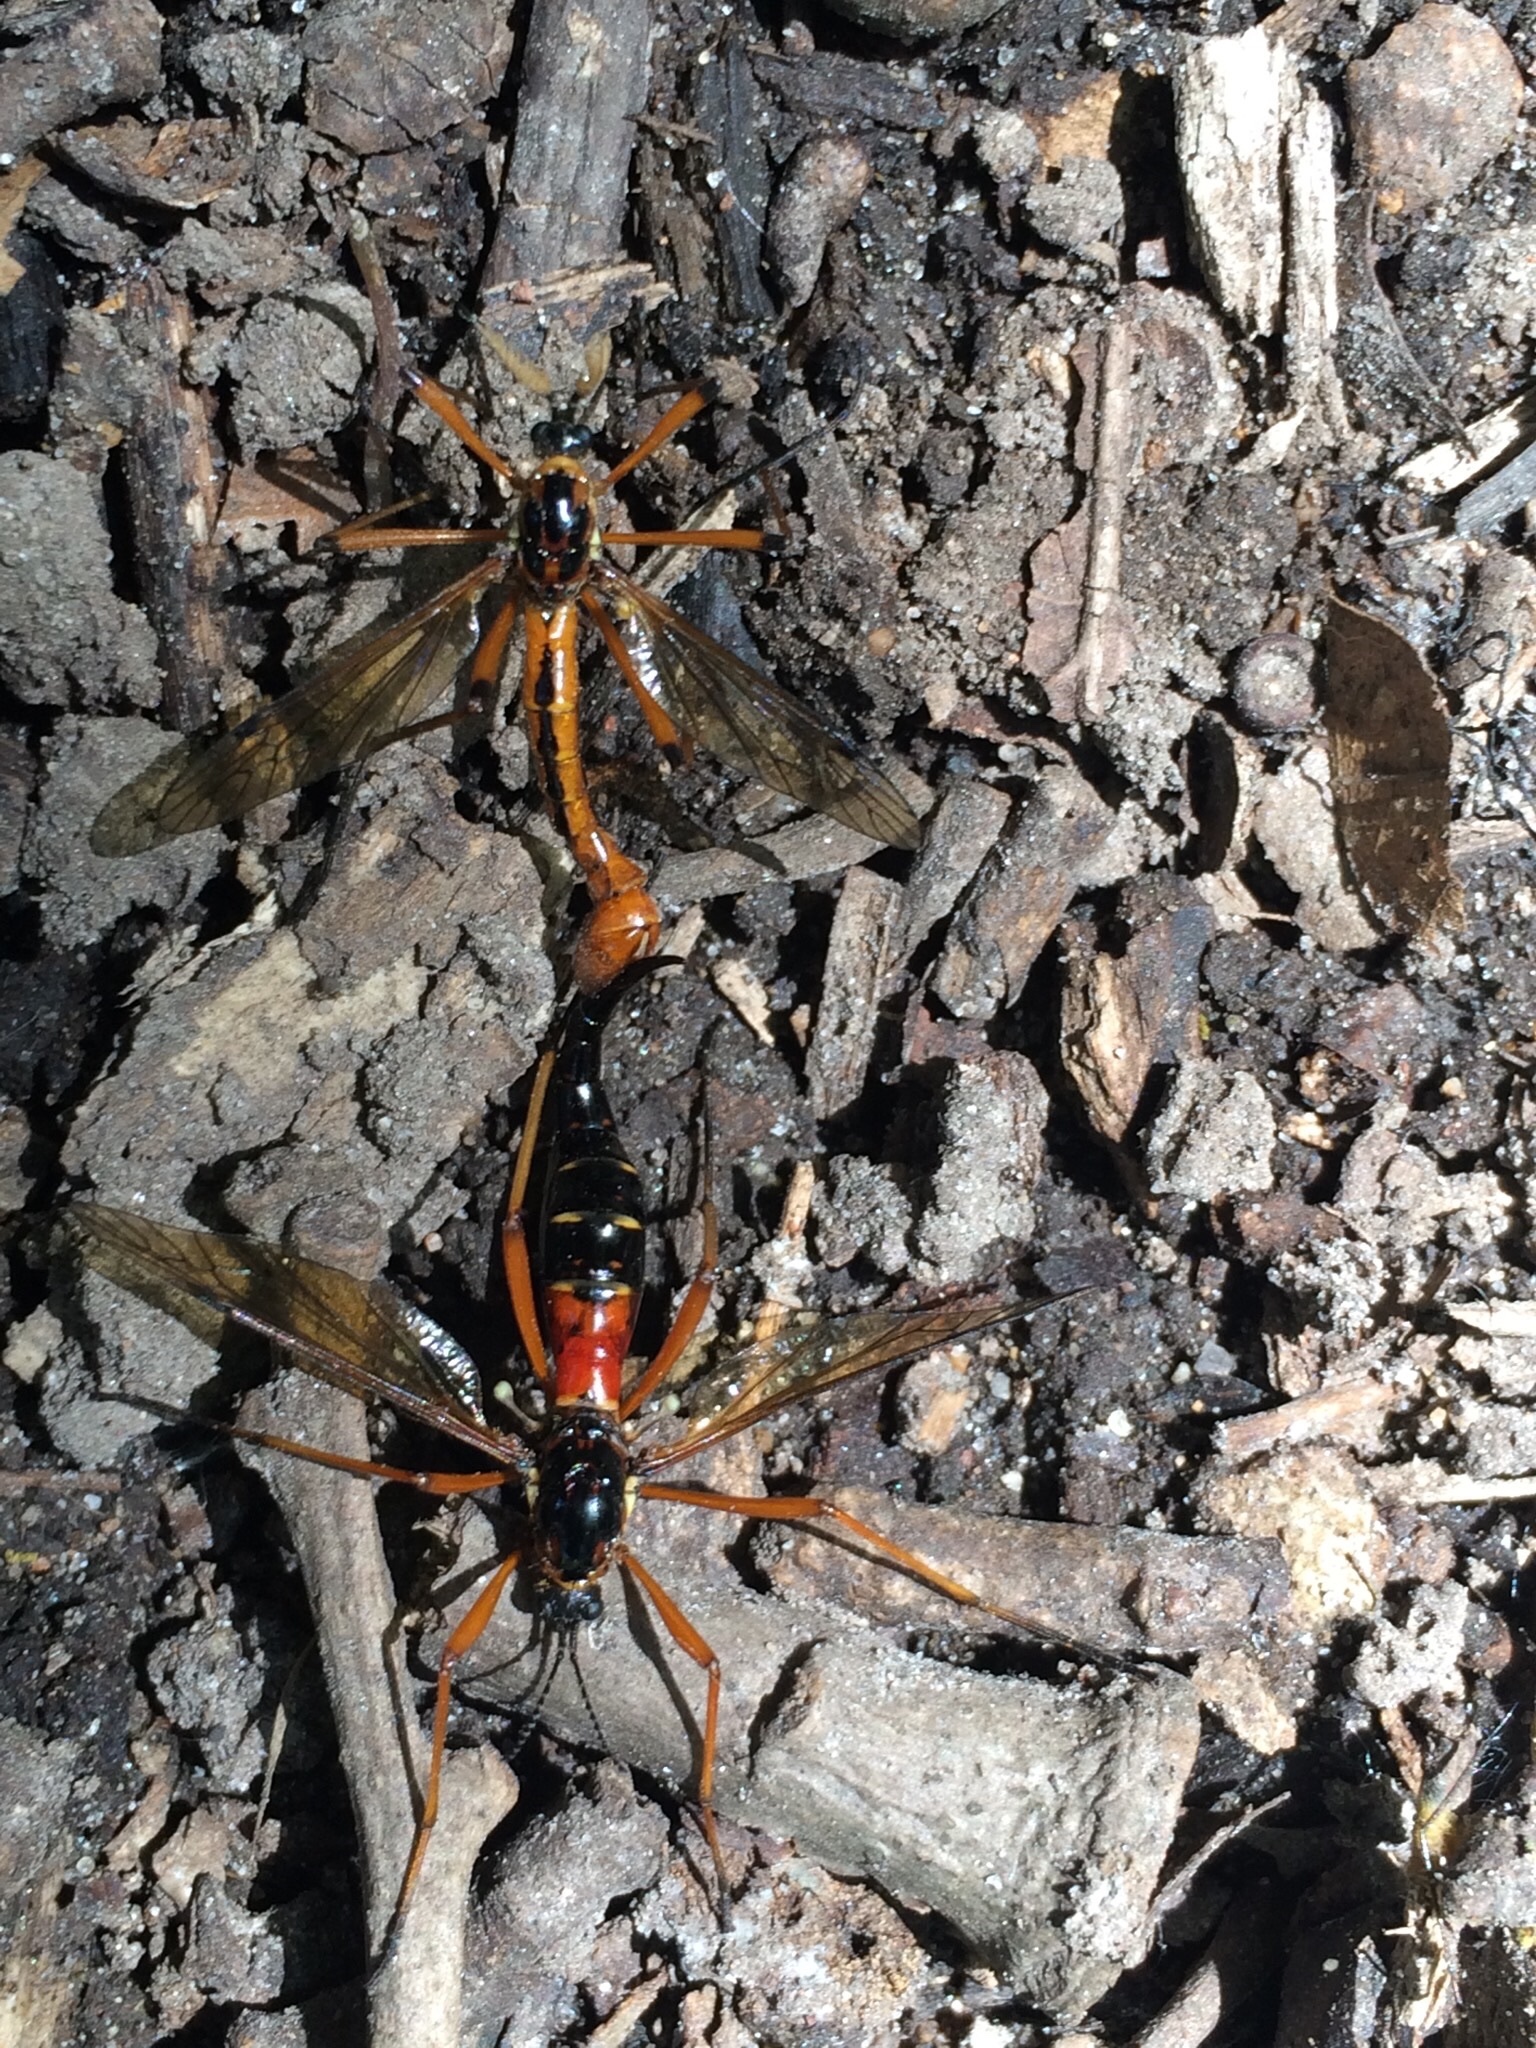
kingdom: Animalia
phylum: Arthropoda
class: Insecta
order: Diptera
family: Tipulidae
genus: Tanyptera
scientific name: Tanyptera dorsalis
